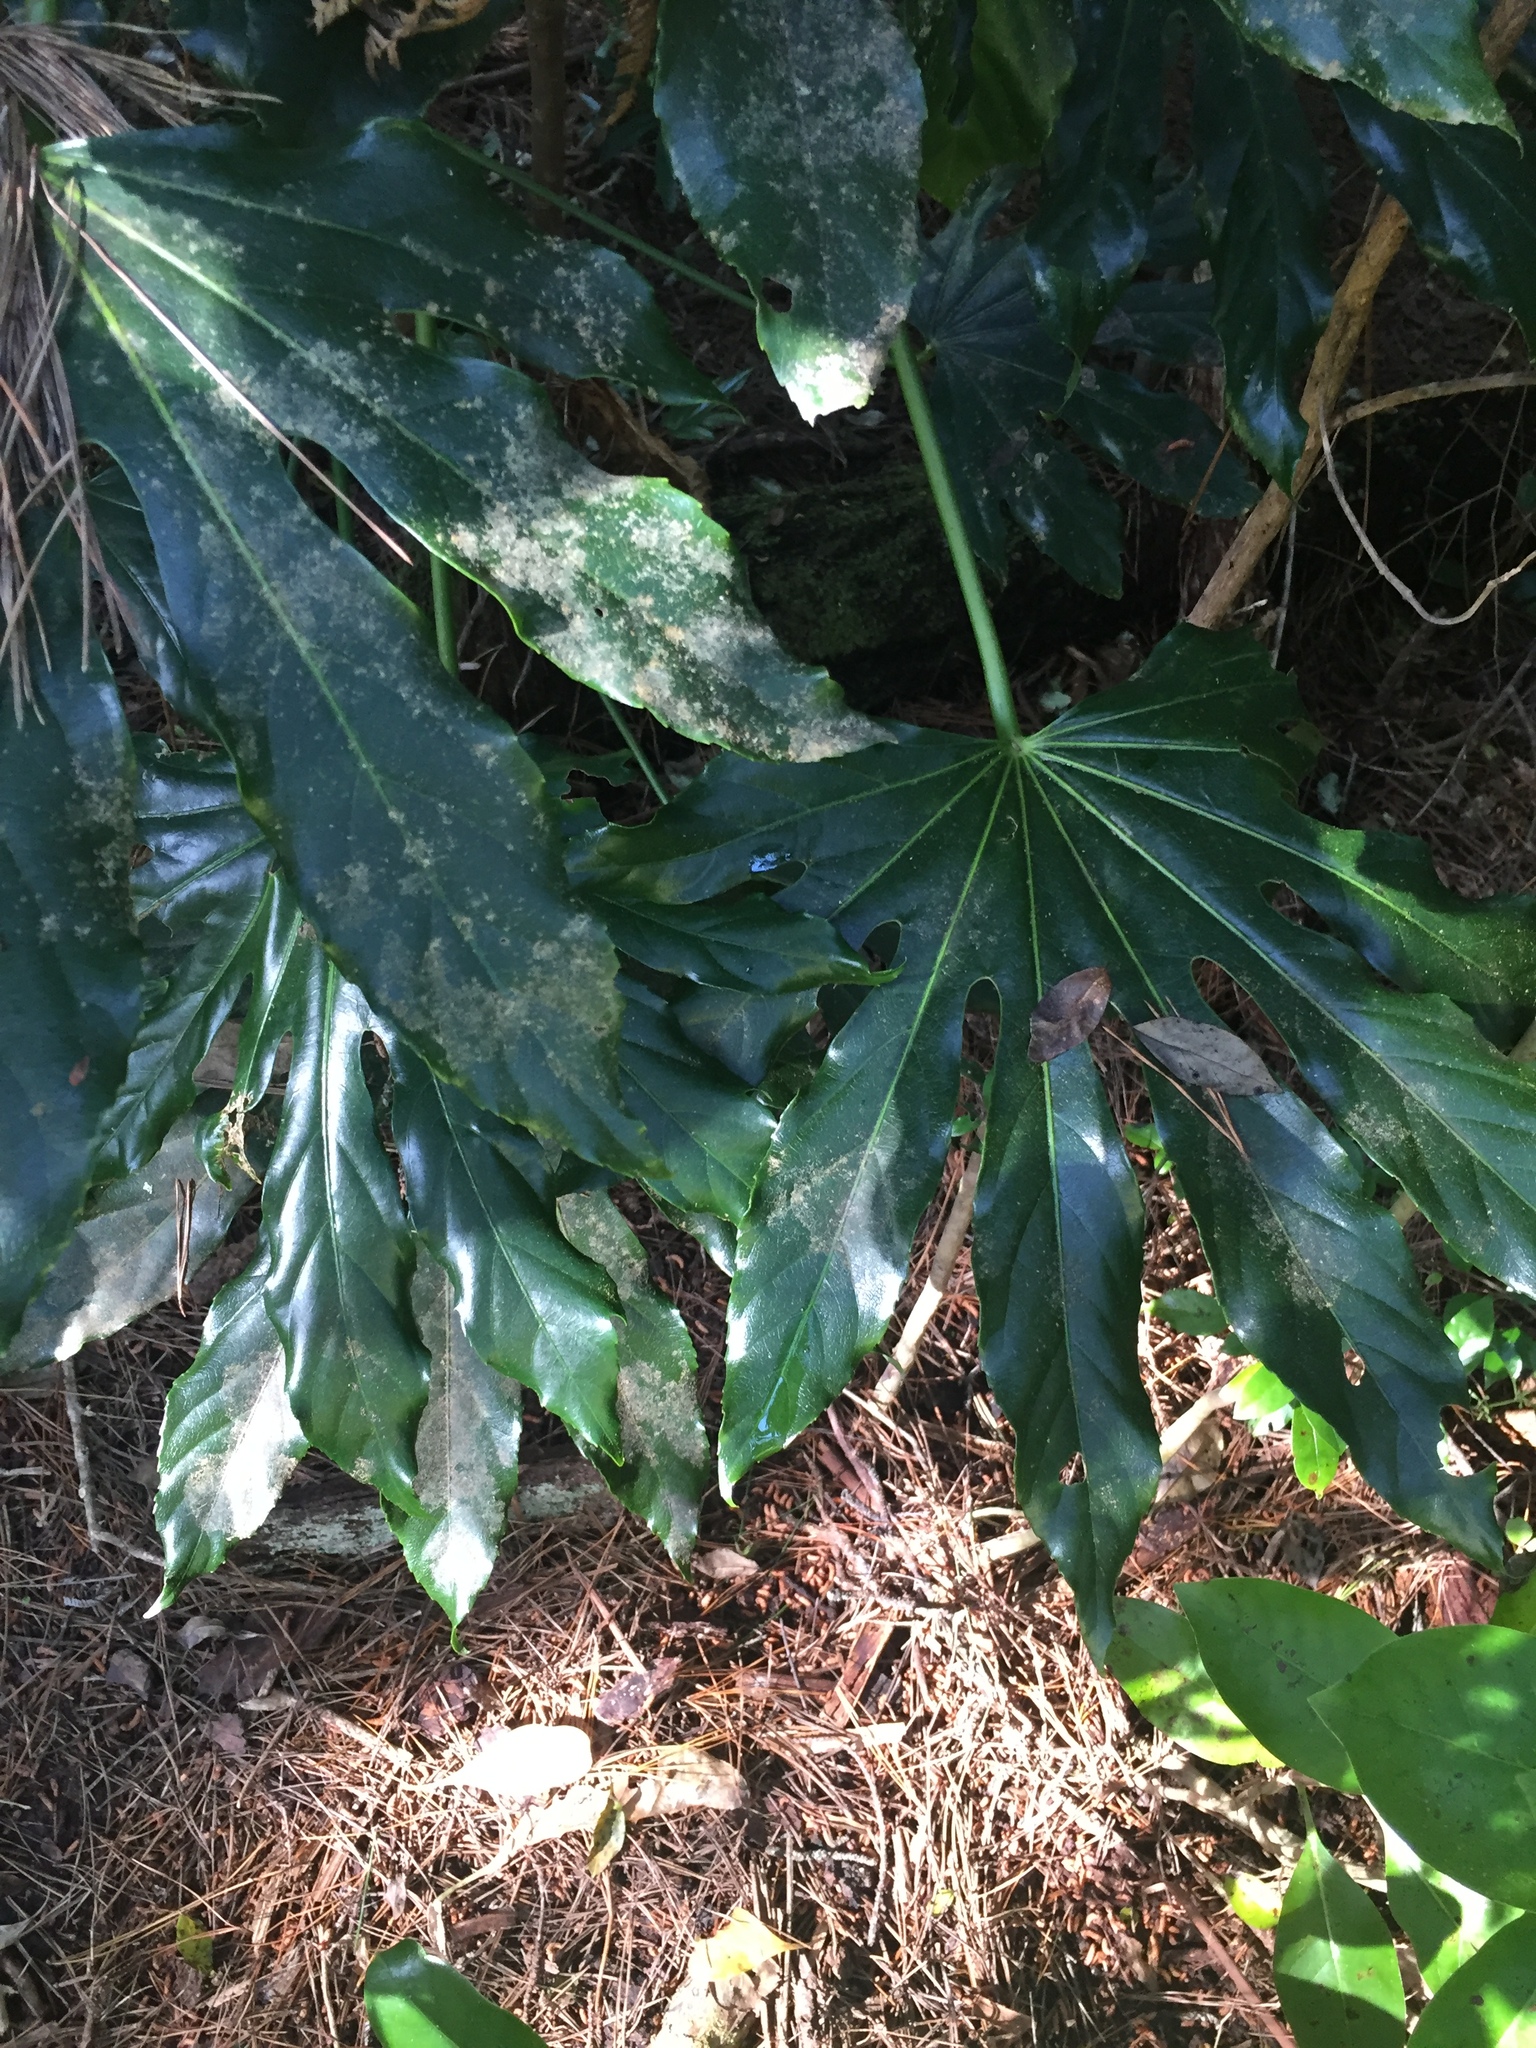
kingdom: Plantae
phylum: Tracheophyta
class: Magnoliopsida
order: Apiales
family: Araliaceae
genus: Fatsia
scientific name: Fatsia japonica
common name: Fatsia
